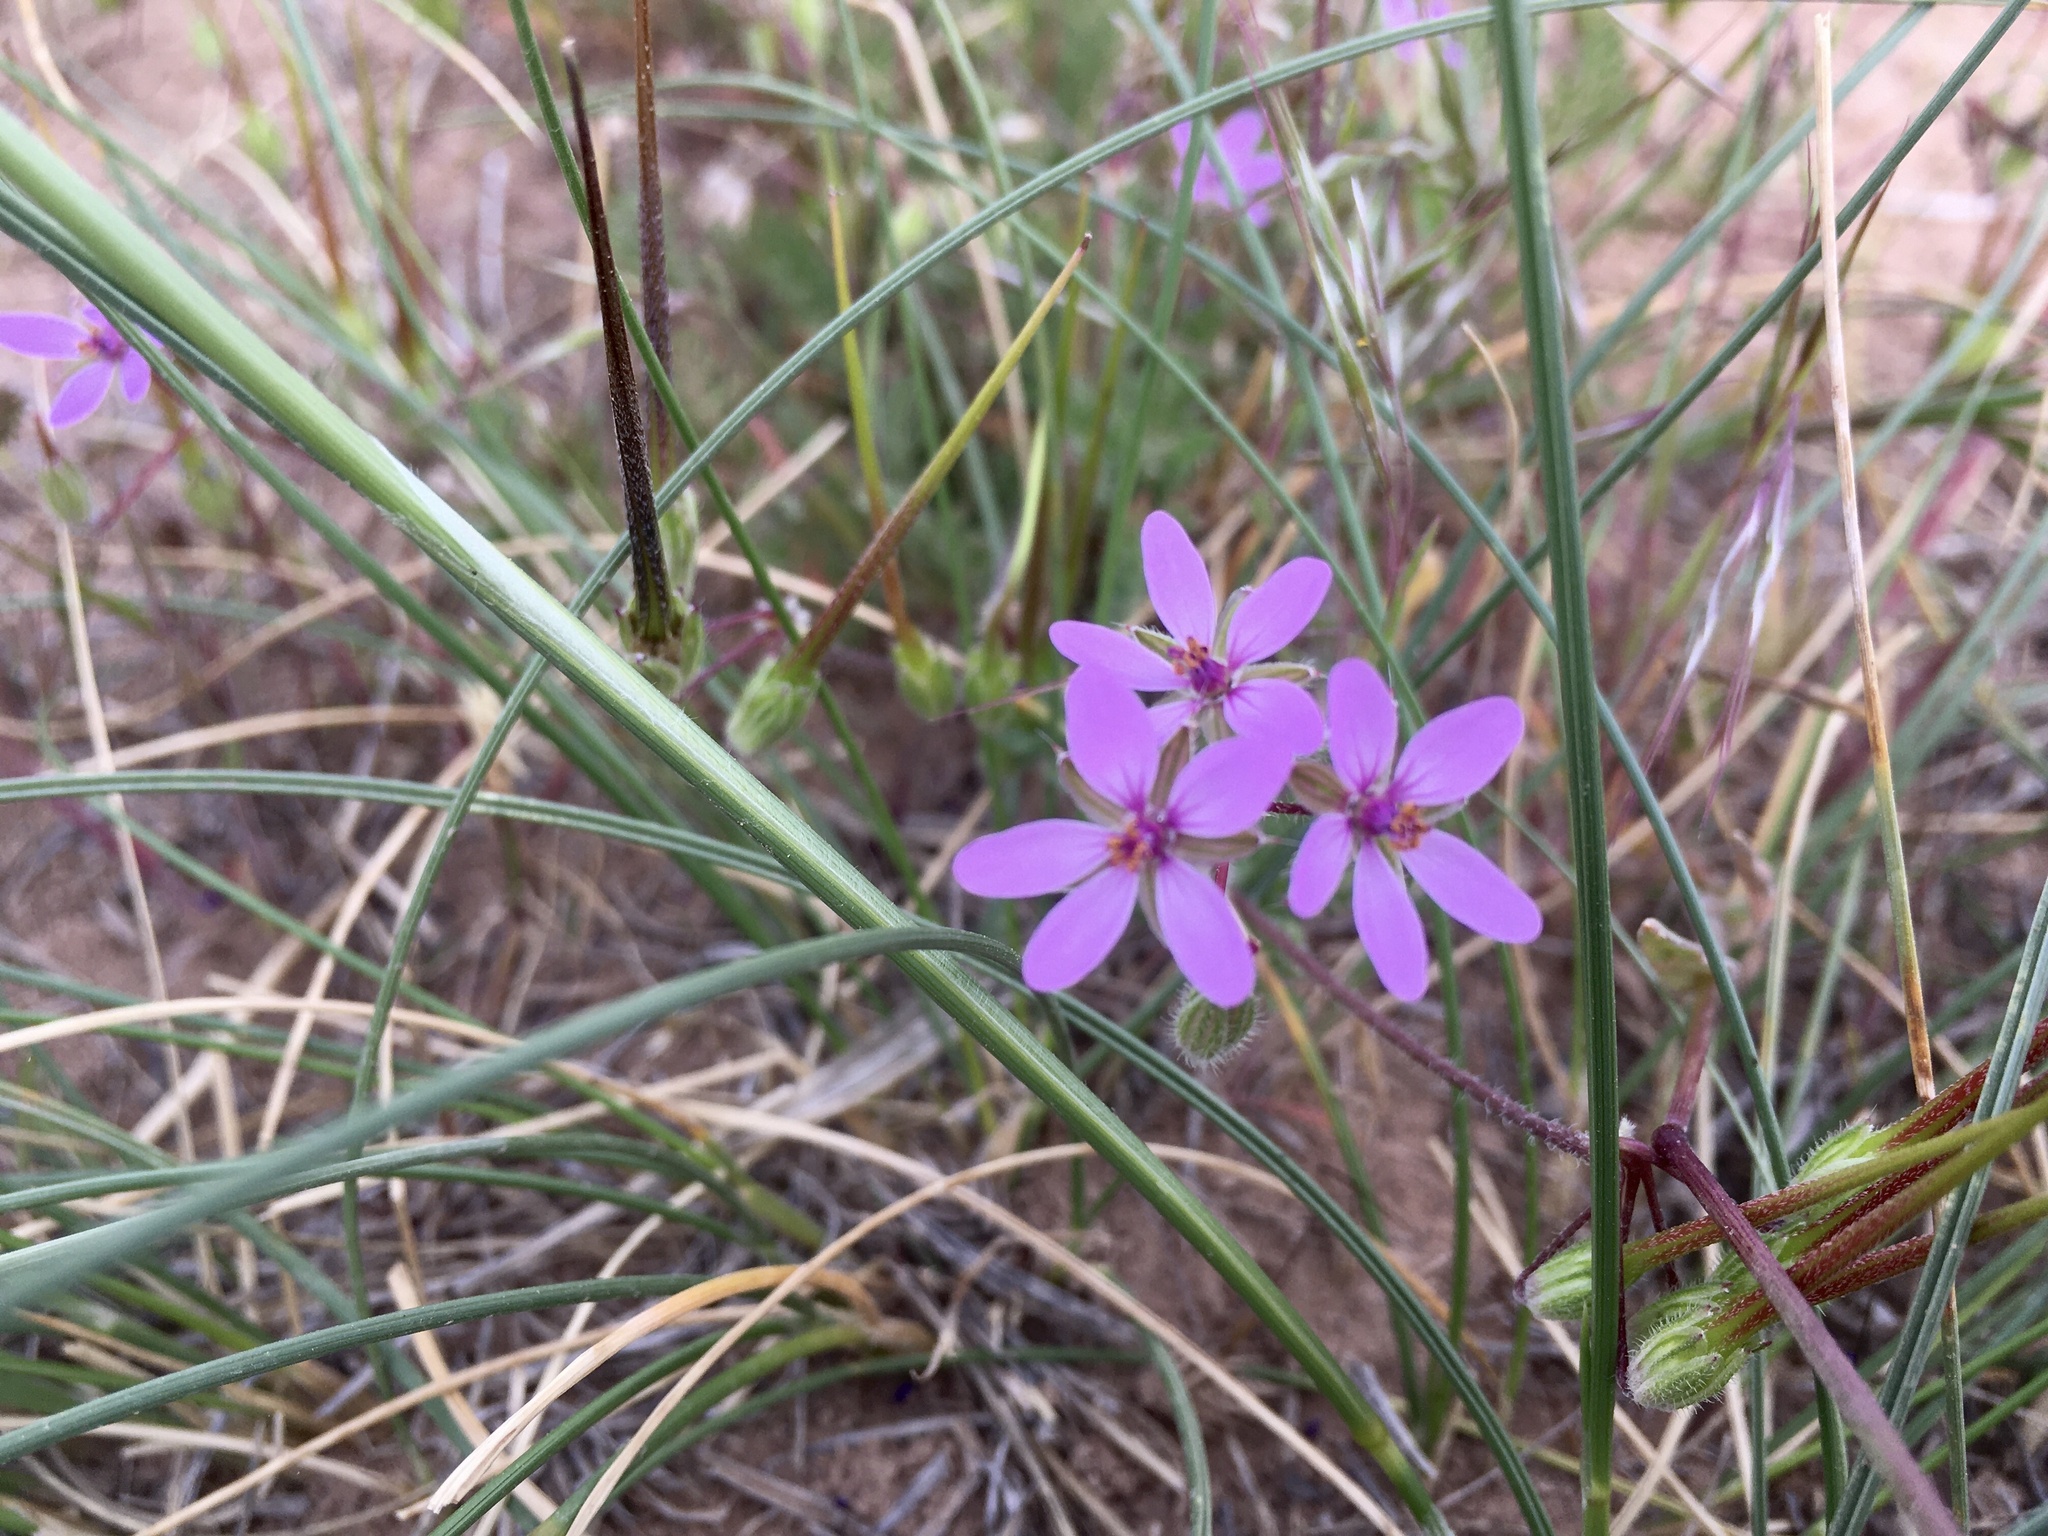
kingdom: Plantae
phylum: Tracheophyta
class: Magnoliopsida
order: Geraniales
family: Geraniaceae
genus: Erodium
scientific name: Erodium cicutarium
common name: Common stork's-bill
